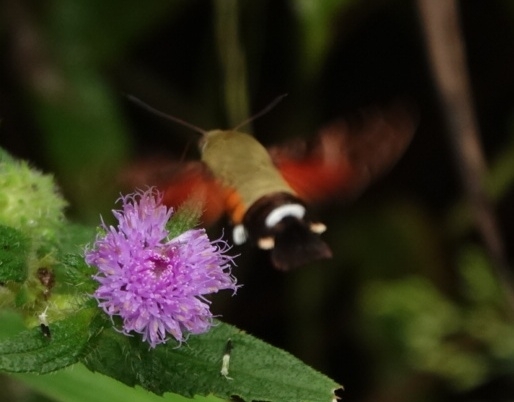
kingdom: Animalia
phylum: Arthropoda
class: Insecta
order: Lepidoptera
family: Sphingidae
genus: Macroglossum
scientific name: Macroglossum affictitia
